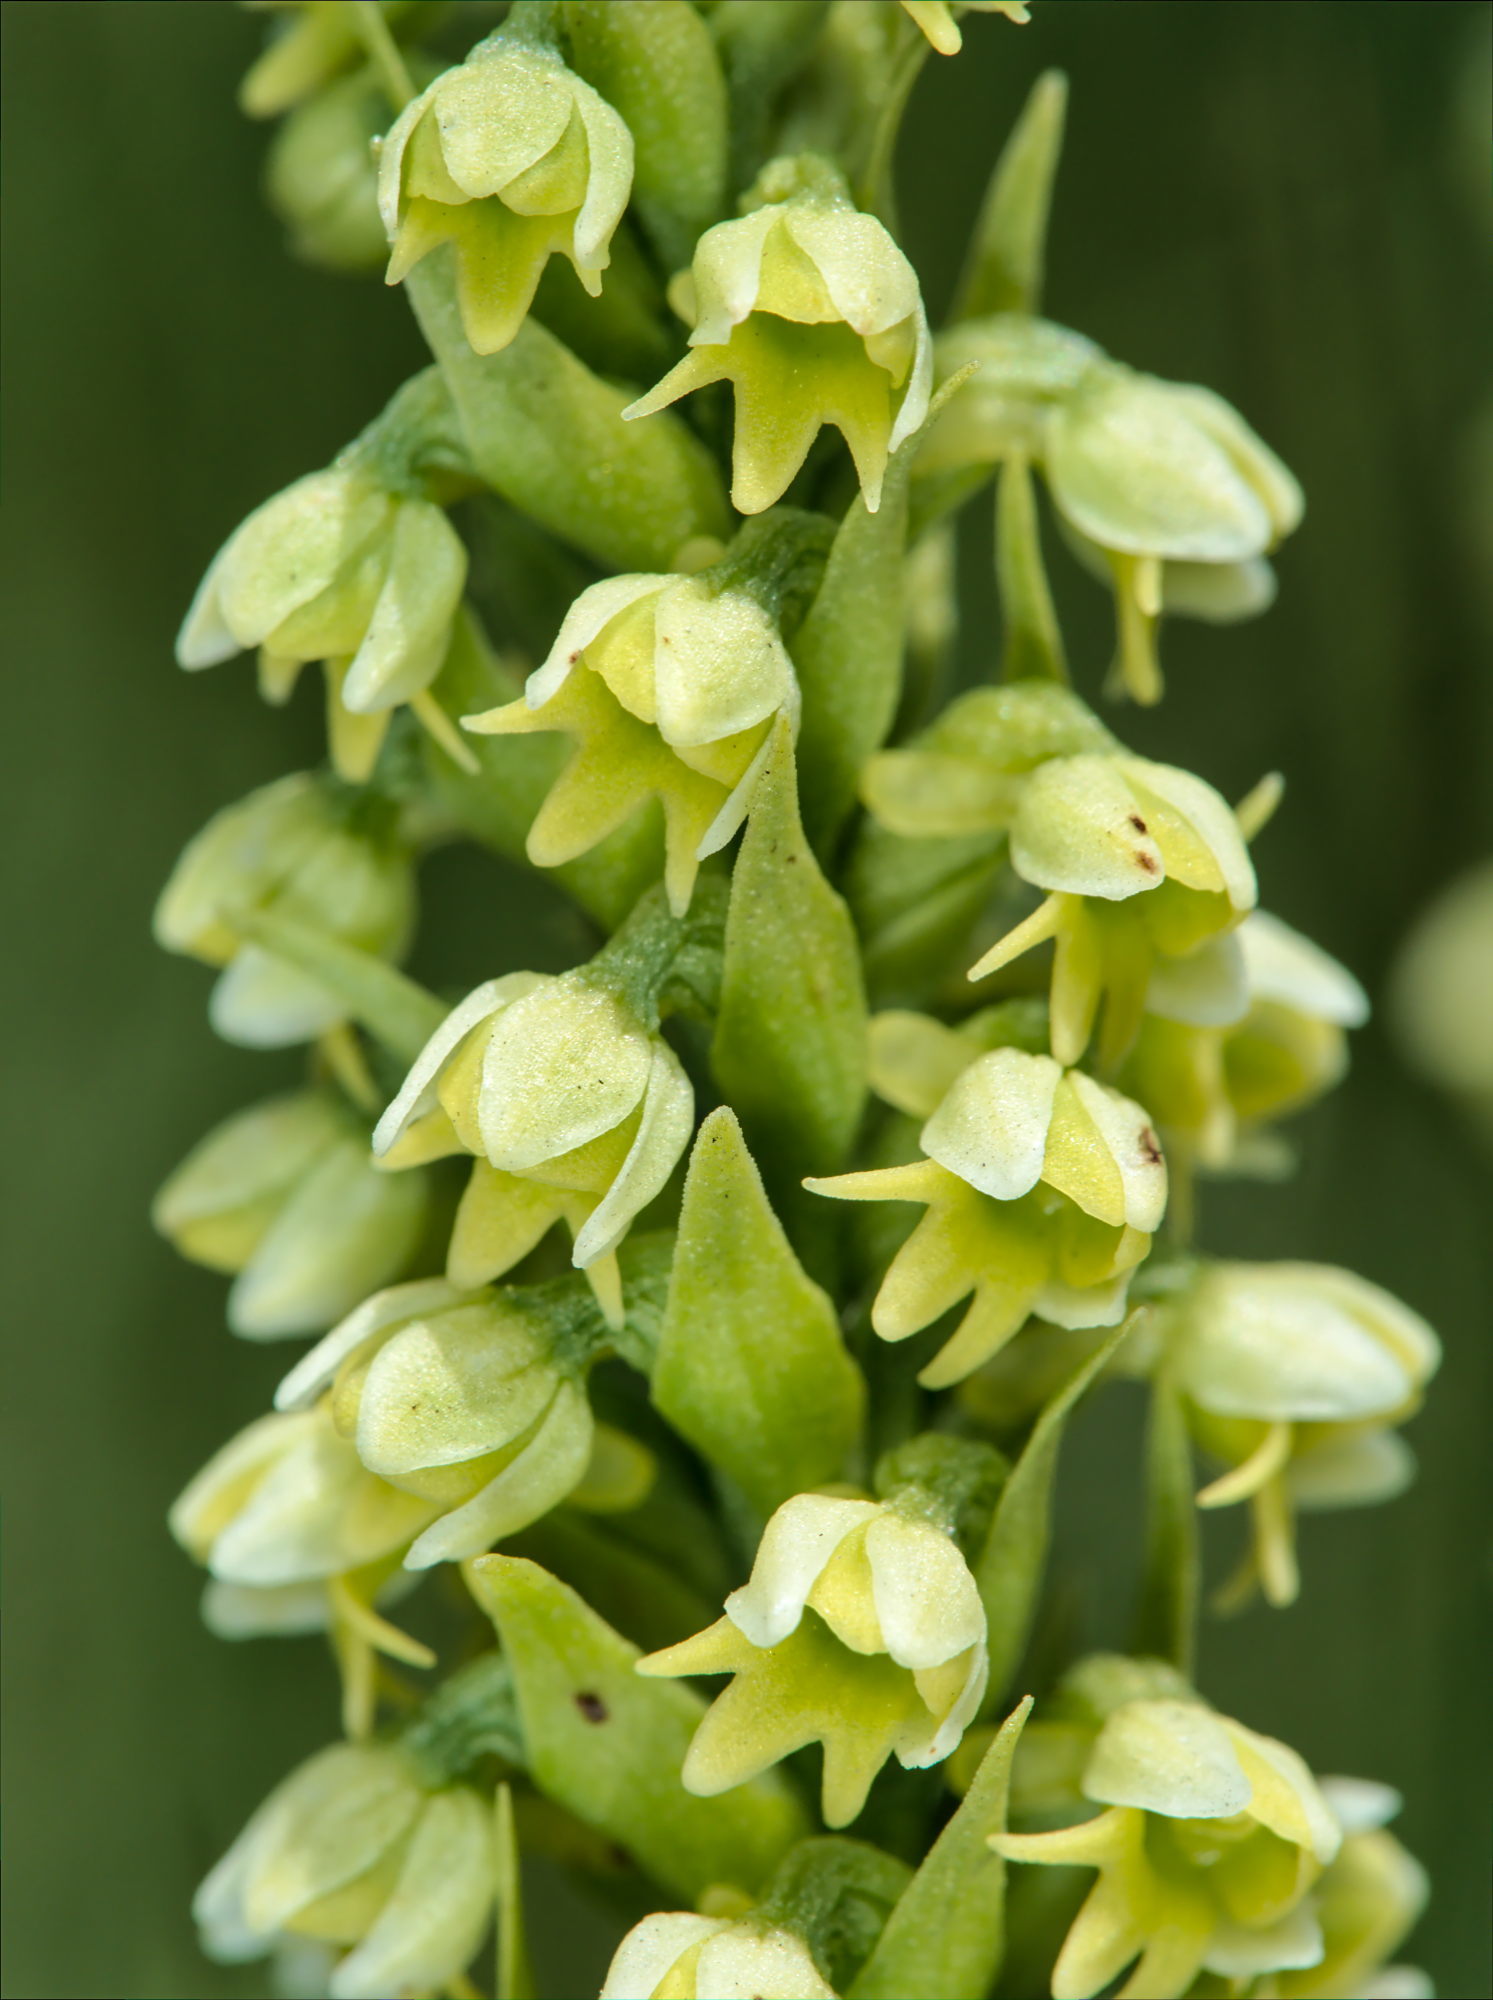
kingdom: Plantae
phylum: Tracheophyta
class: Liliopsida
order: Asparagales
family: Orchidaceae
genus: Pseudorchis
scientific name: Pseudorchis albida
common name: Small-white orchid
